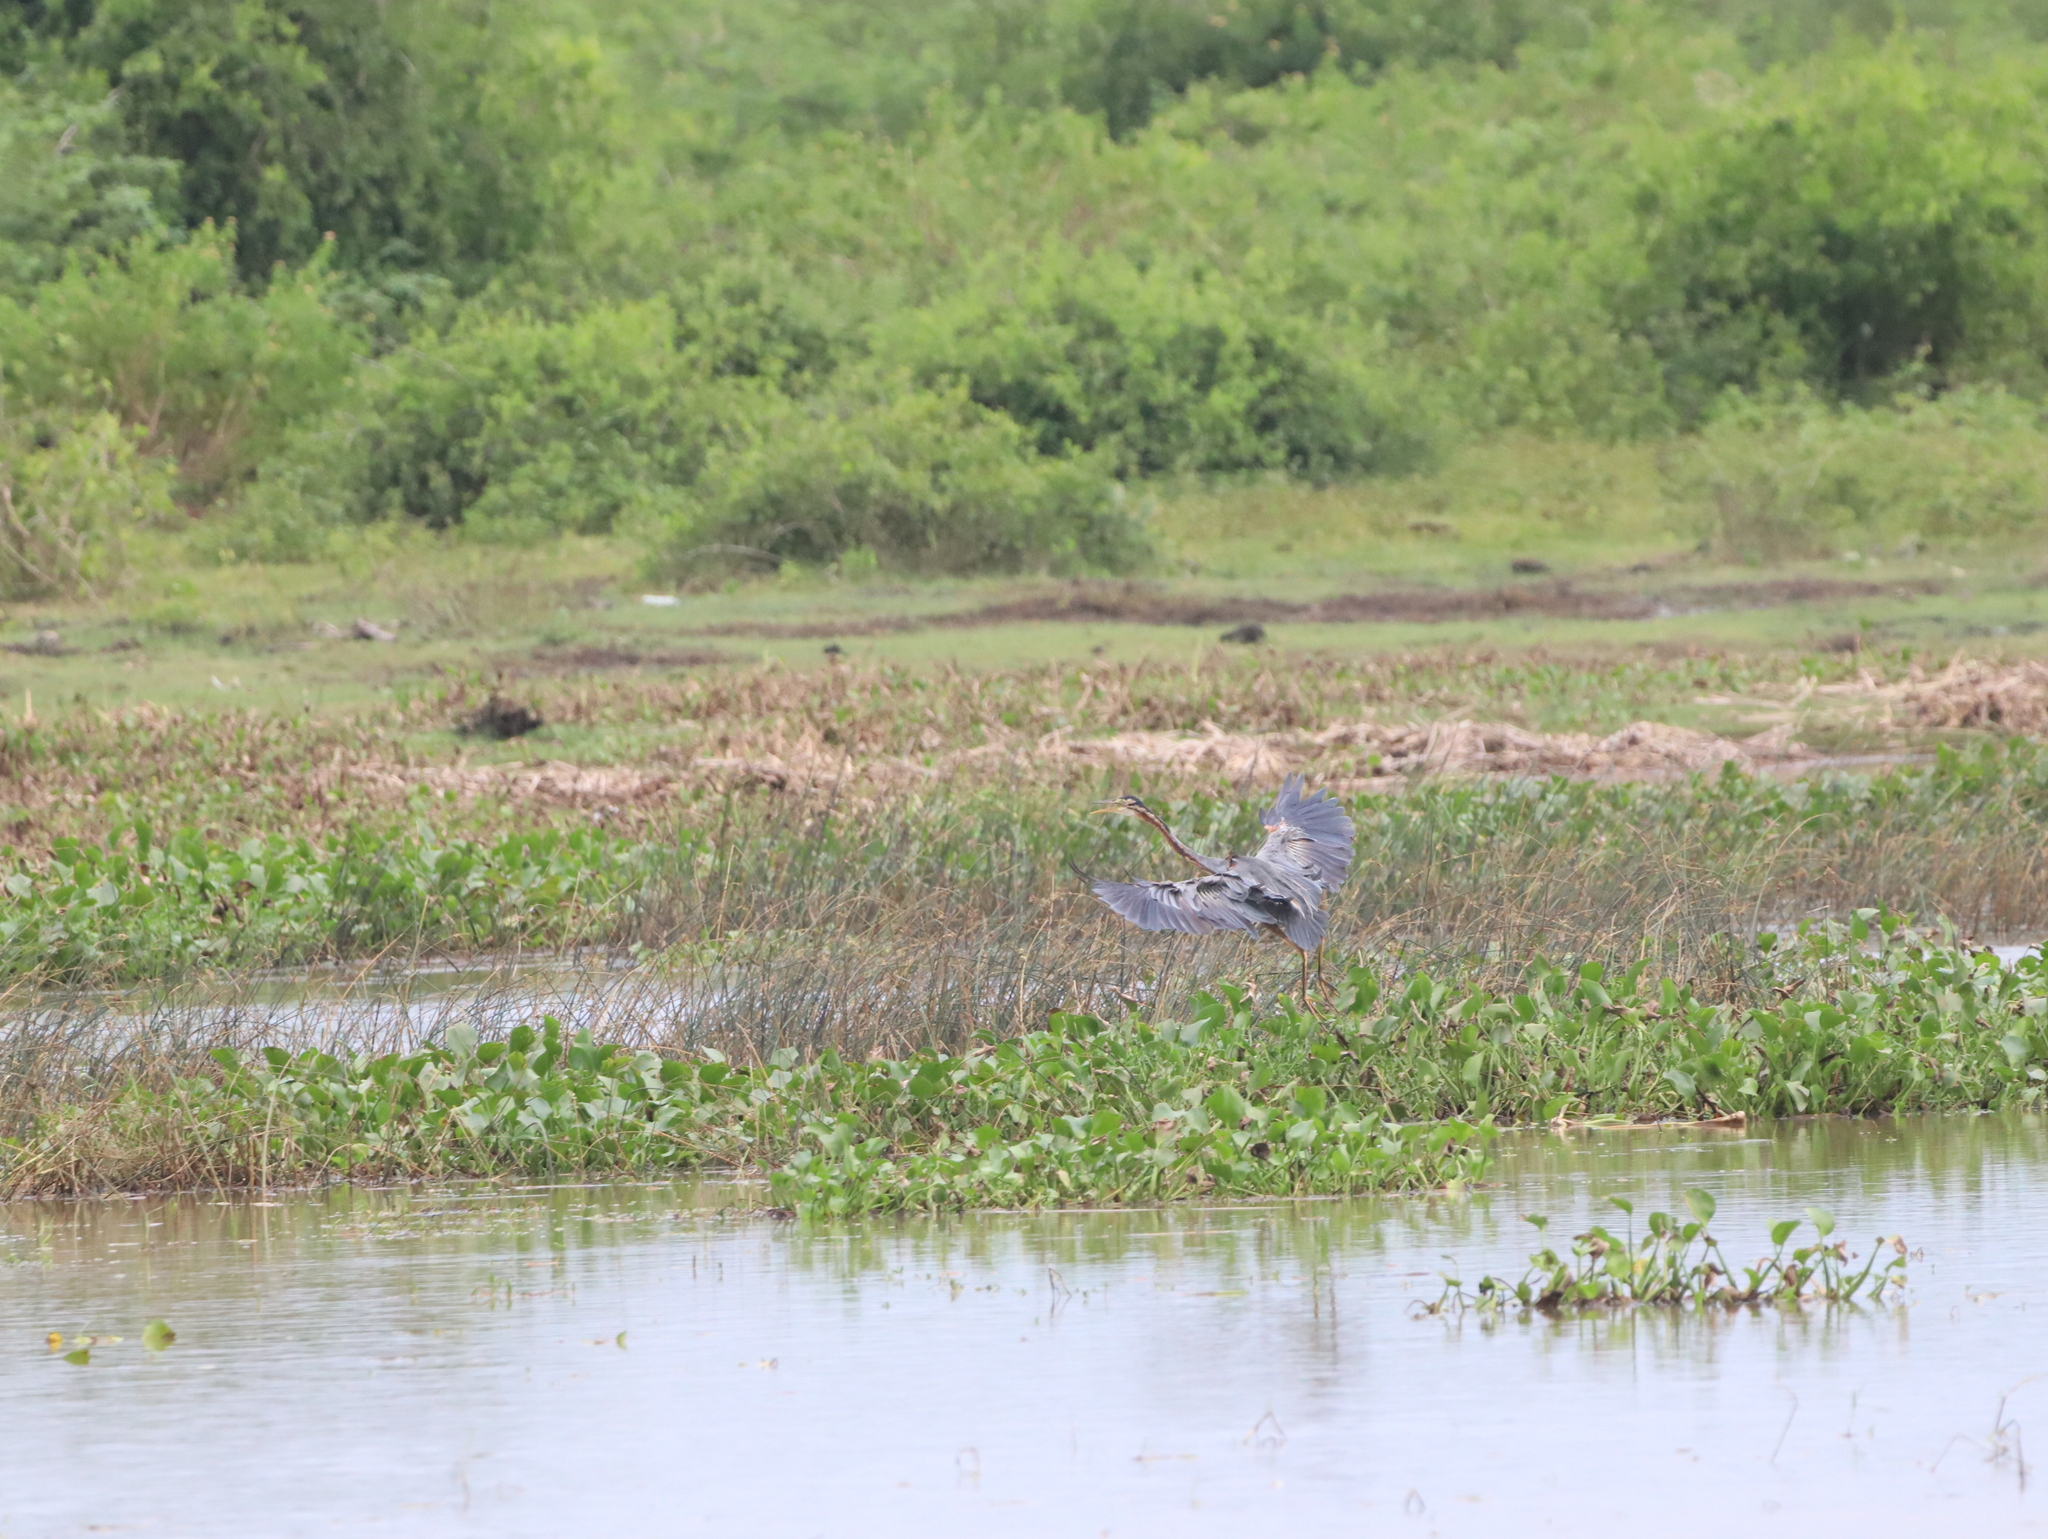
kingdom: Animalia
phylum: Chordata
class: Aves
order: Pelecaniformes
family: Ardeidae
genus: Ardea
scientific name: Ardea purpurea
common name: Purple heron
